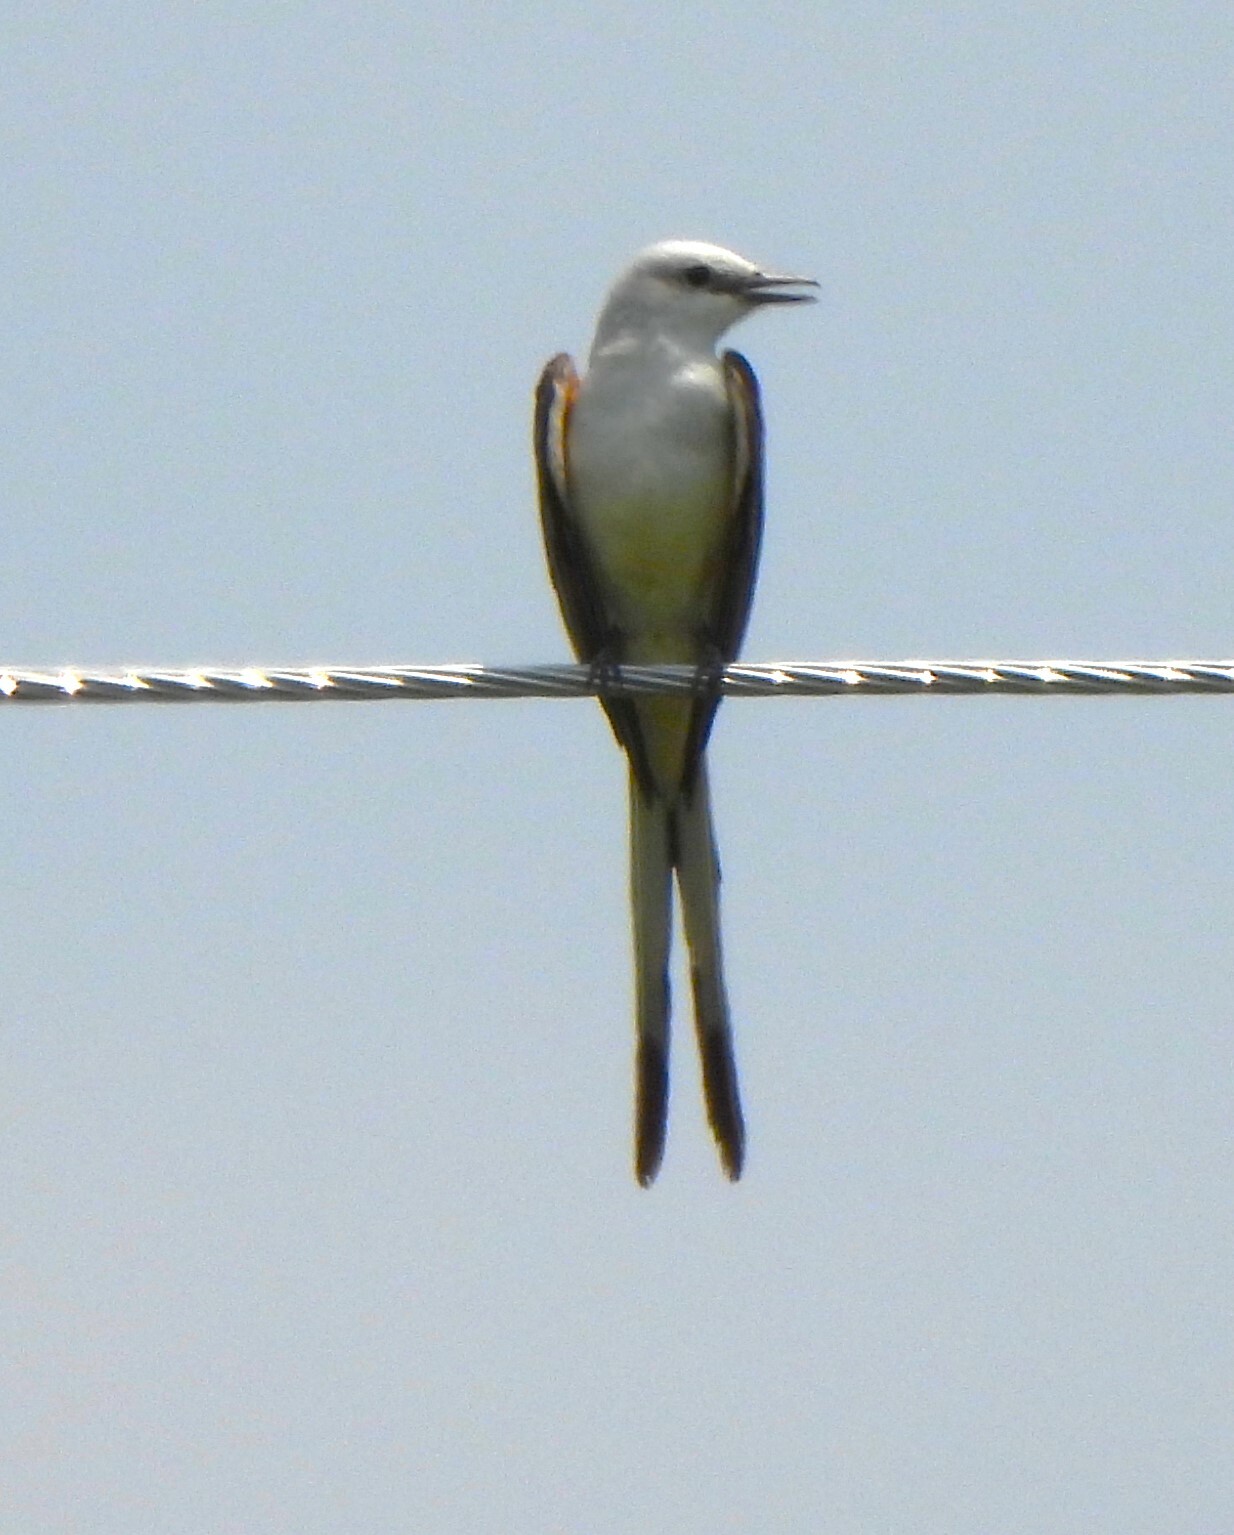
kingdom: Animalia
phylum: Chordata
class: Aves
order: Passeriformes
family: Tyrannidae
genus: Tyrannus
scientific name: Tyrannus forficatus
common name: Scissor-tailed flycatcher
